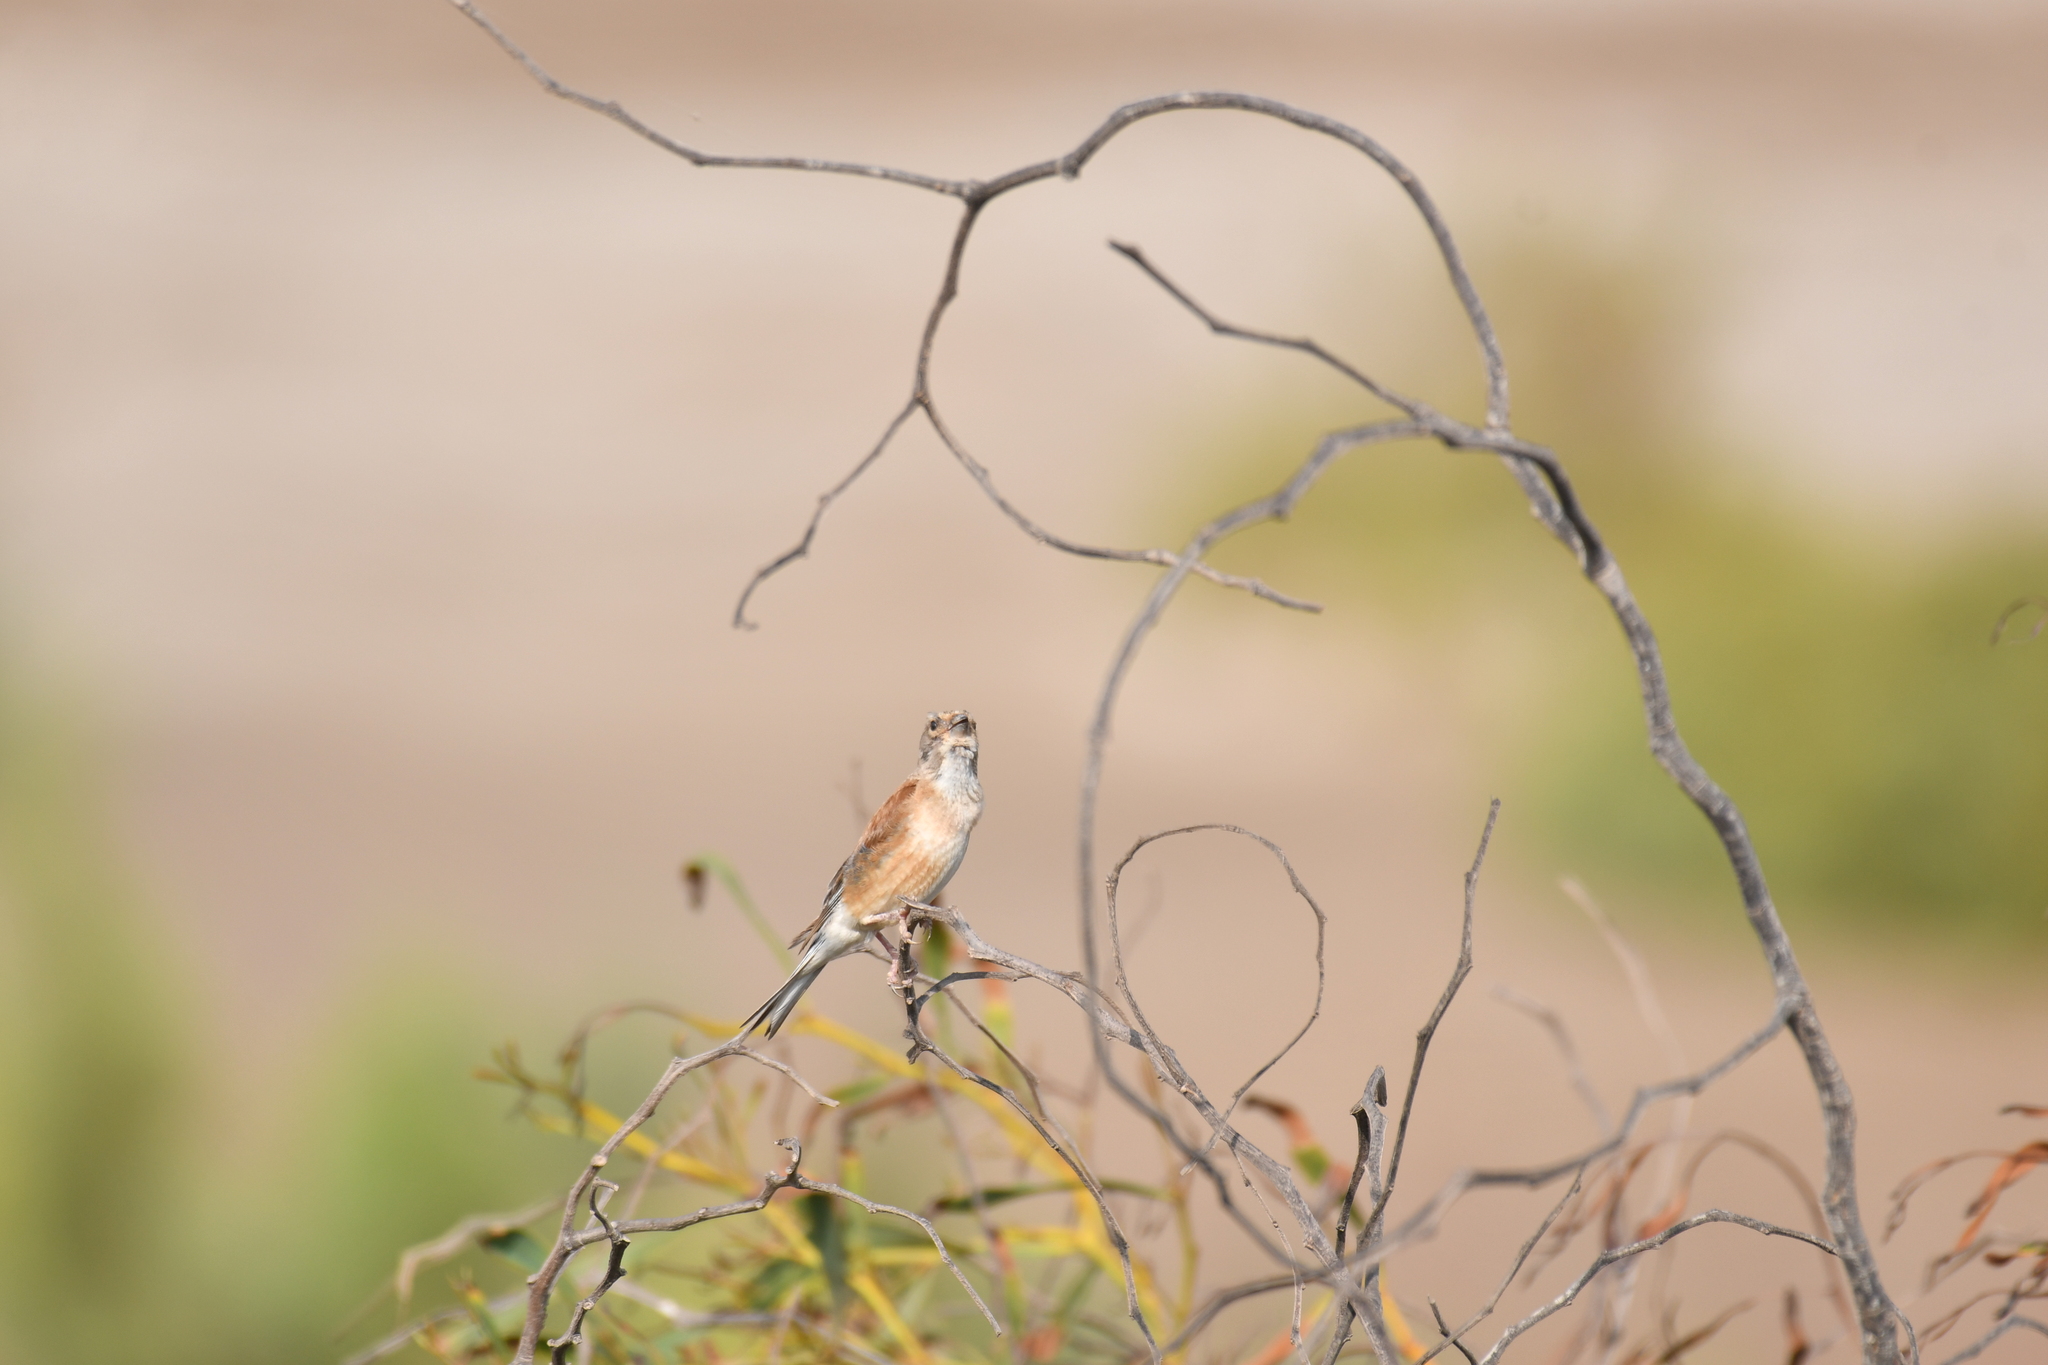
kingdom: Animalia
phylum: Chordata
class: Aves
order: Passeriformes
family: Fringillidae
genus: Linaria
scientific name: Linaria cannabina
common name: Common linnet
